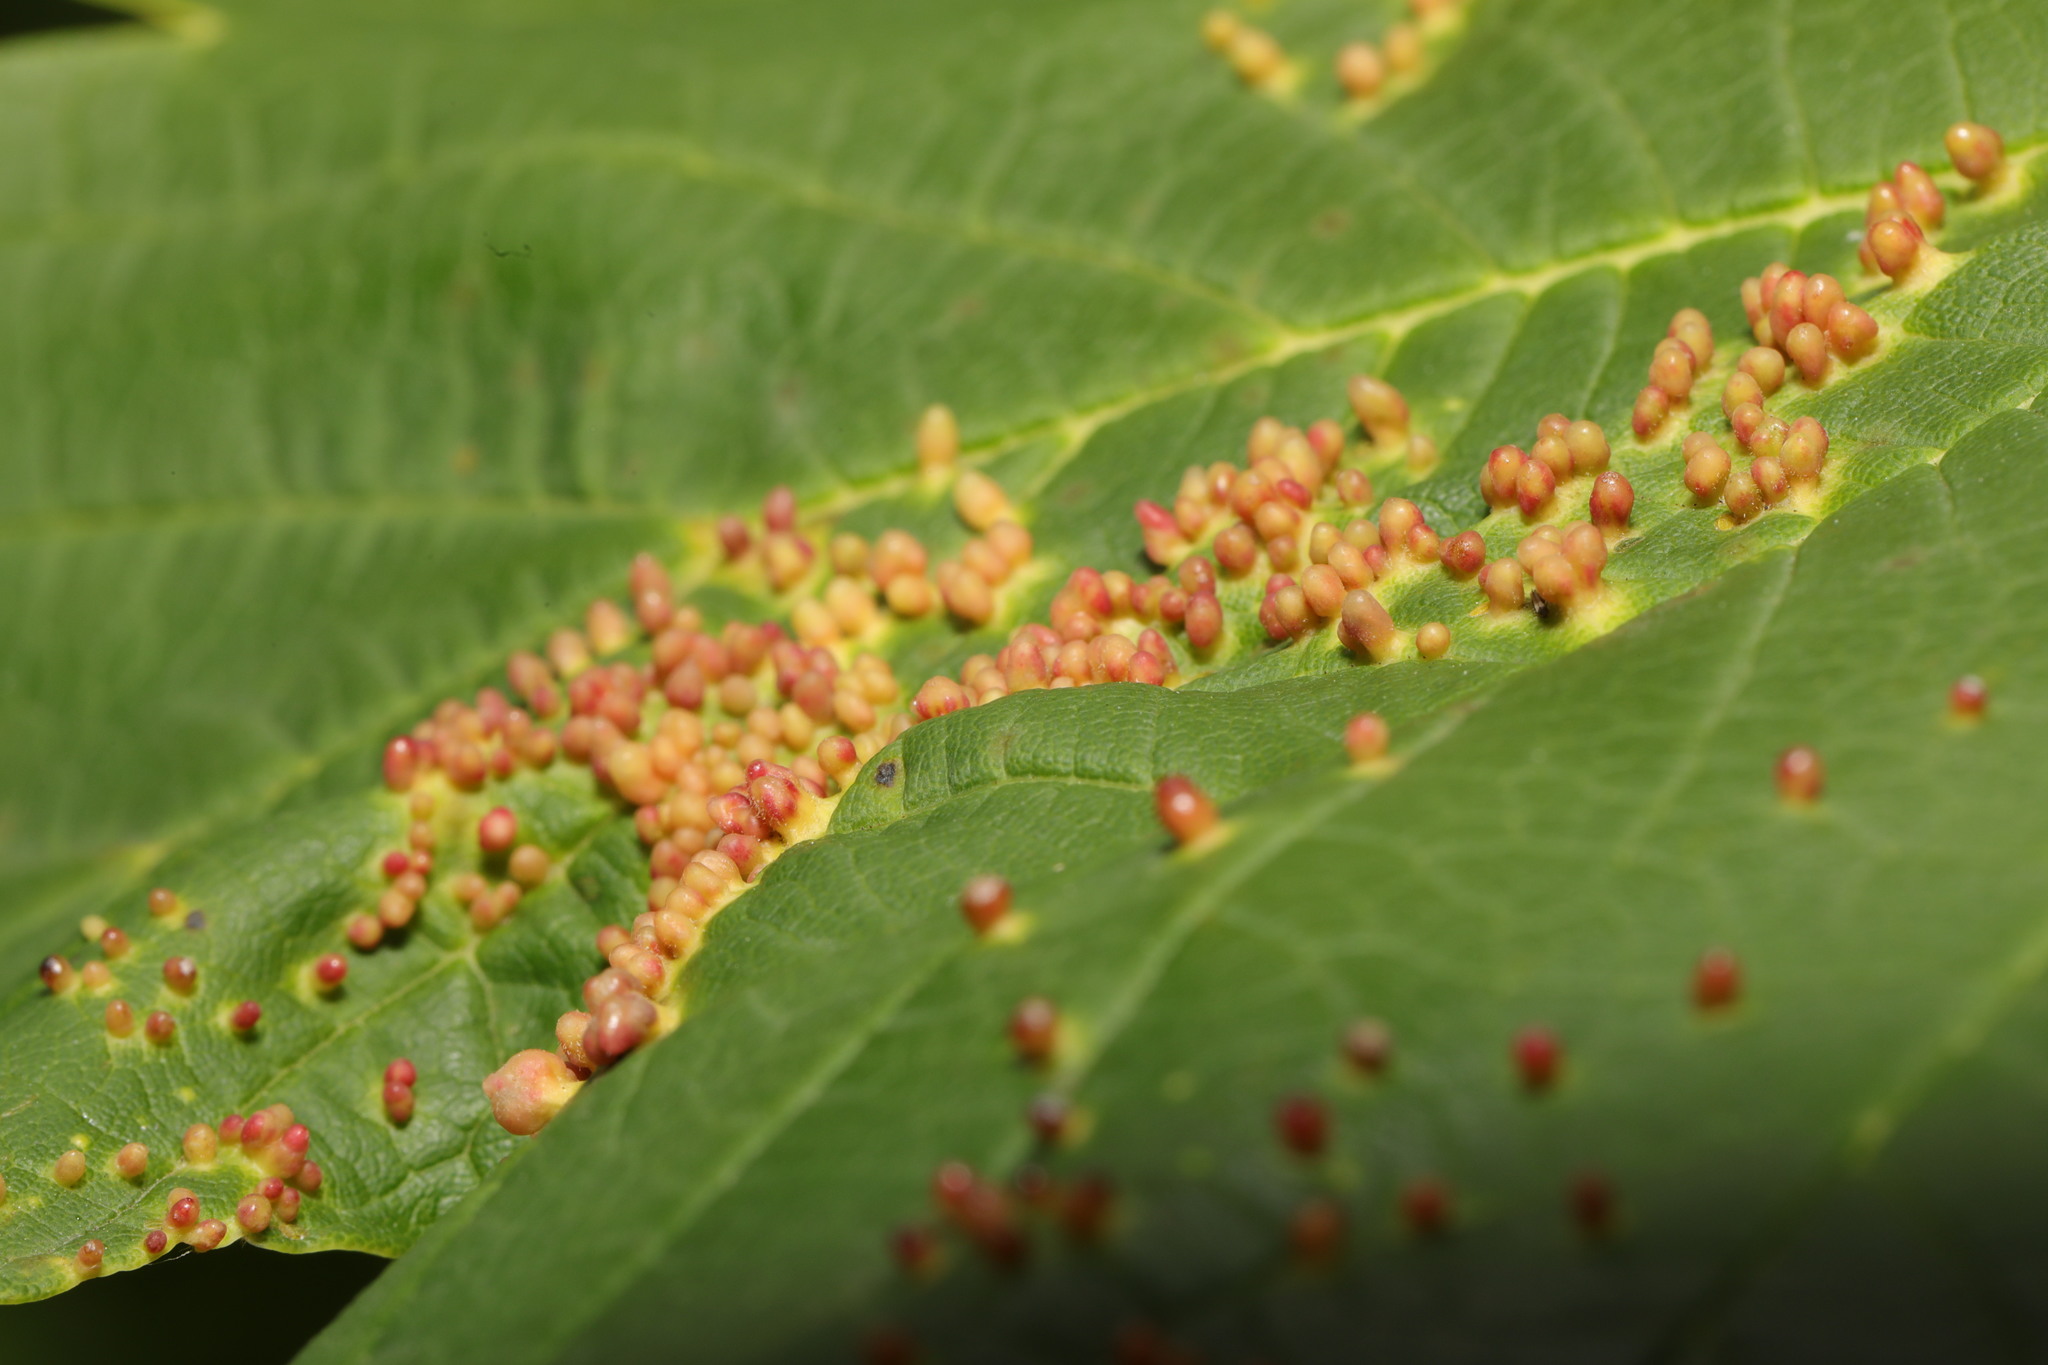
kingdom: Animalia
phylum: Arthropoda
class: Arachnida
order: Trombidiformes
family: Eriophyidae
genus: Aceria
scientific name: Aceria cephaloneus
